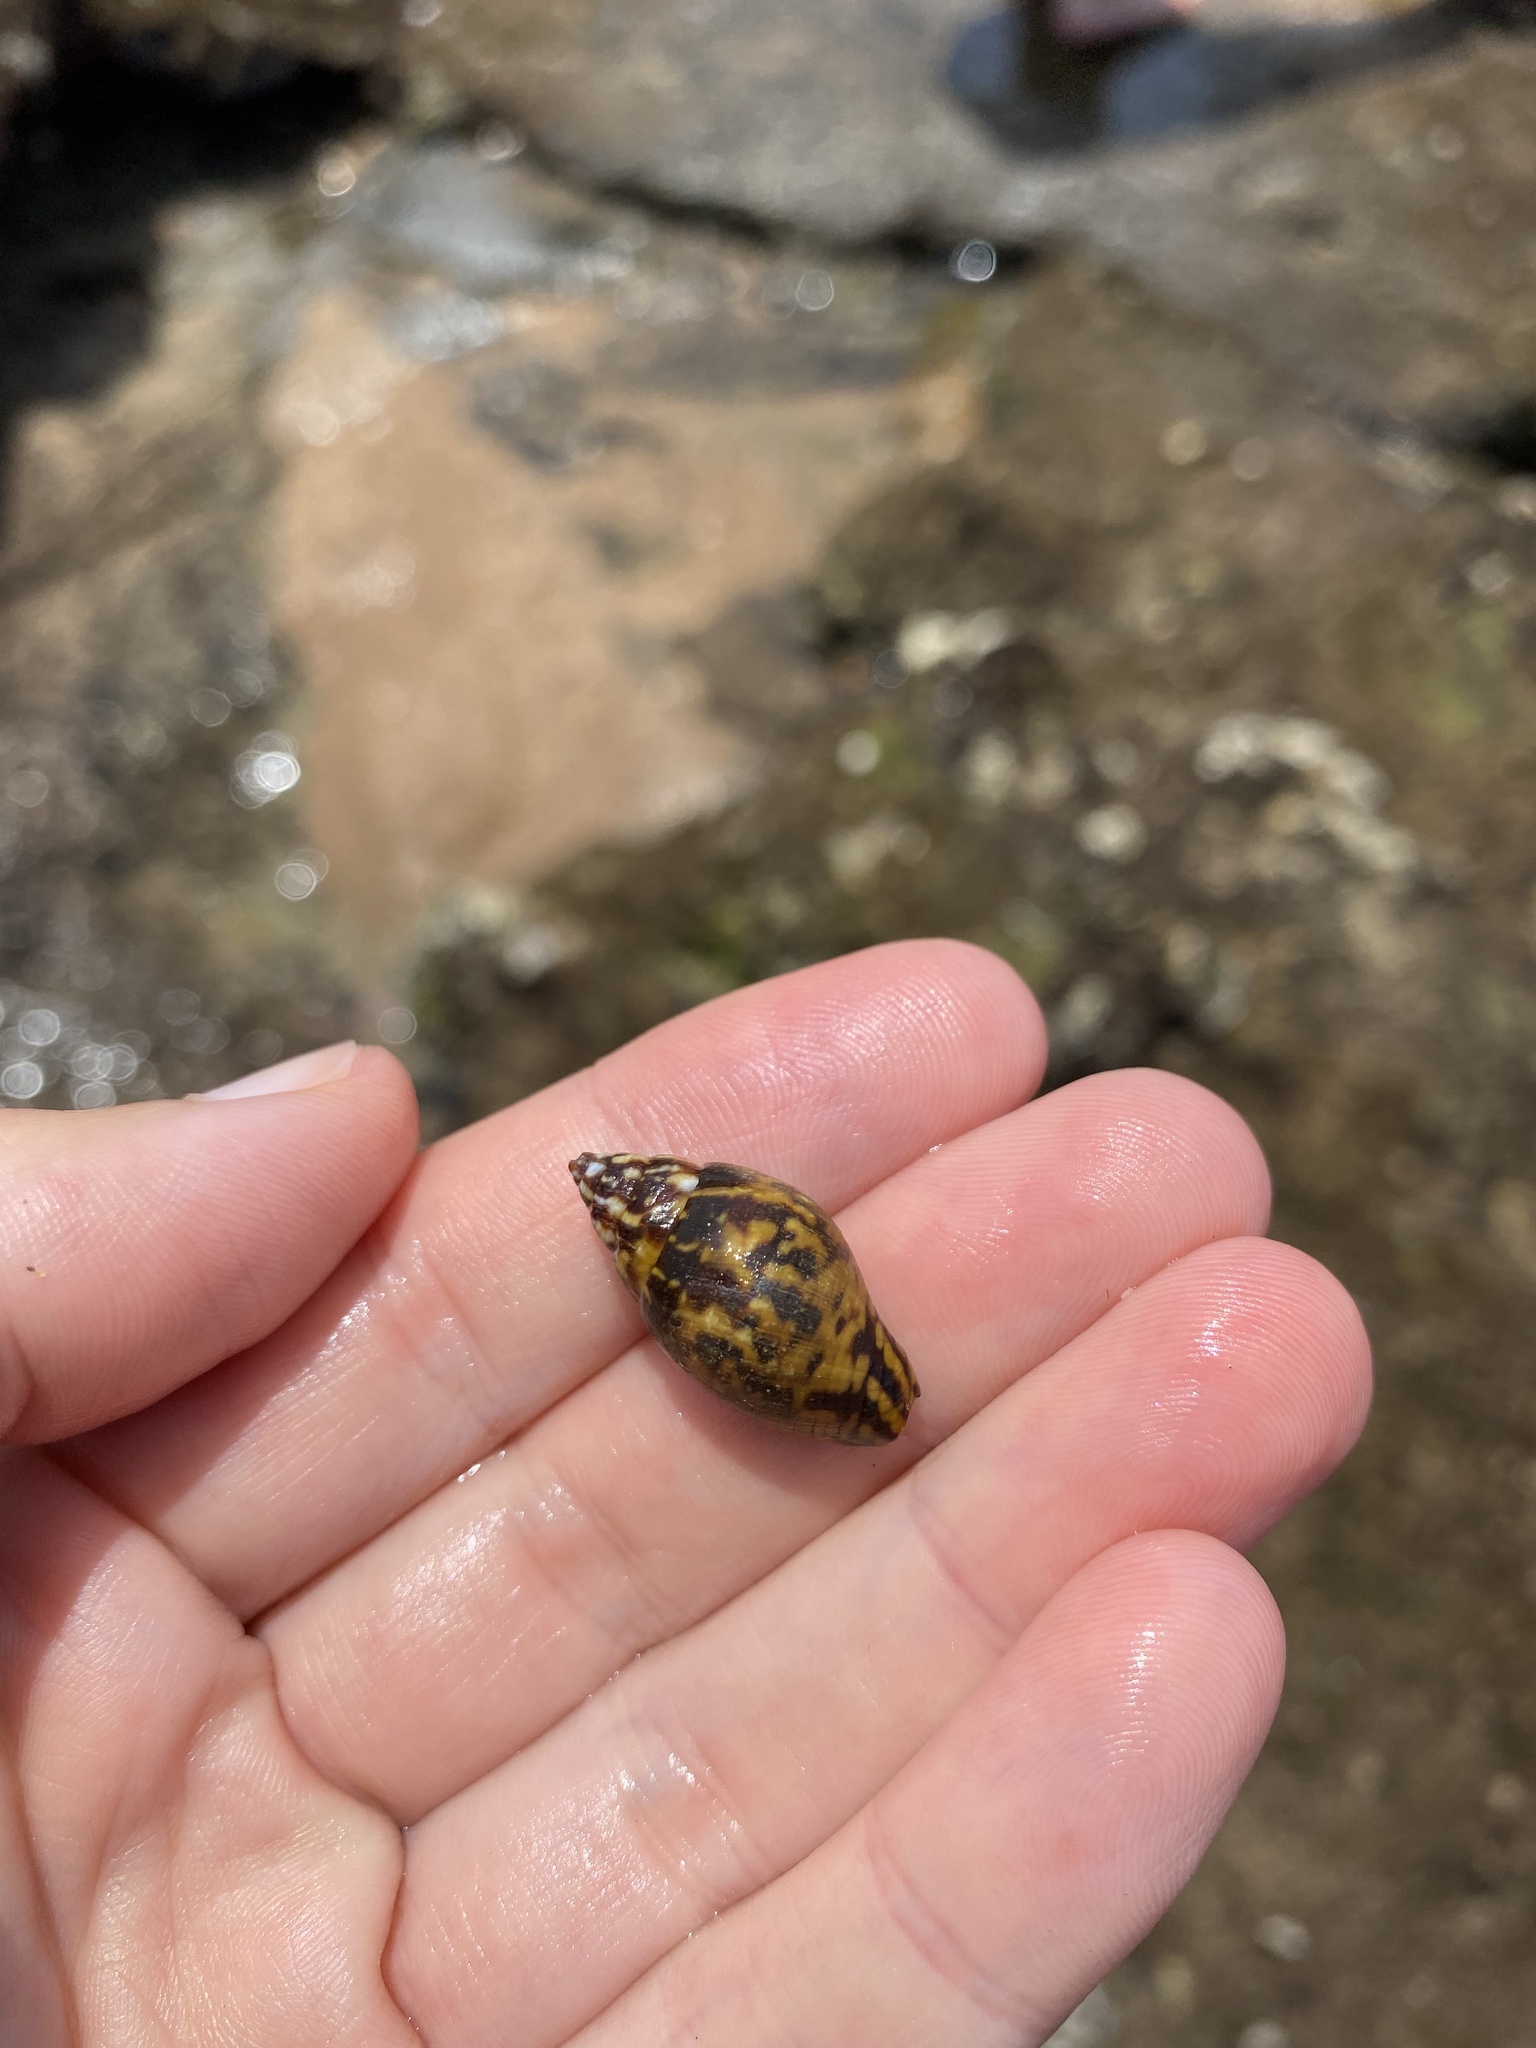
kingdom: Animalia
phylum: Mollusca
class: Gastropoda
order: Neogastropoda
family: Mitridae
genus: Strigatella
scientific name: Strigatella litterata
